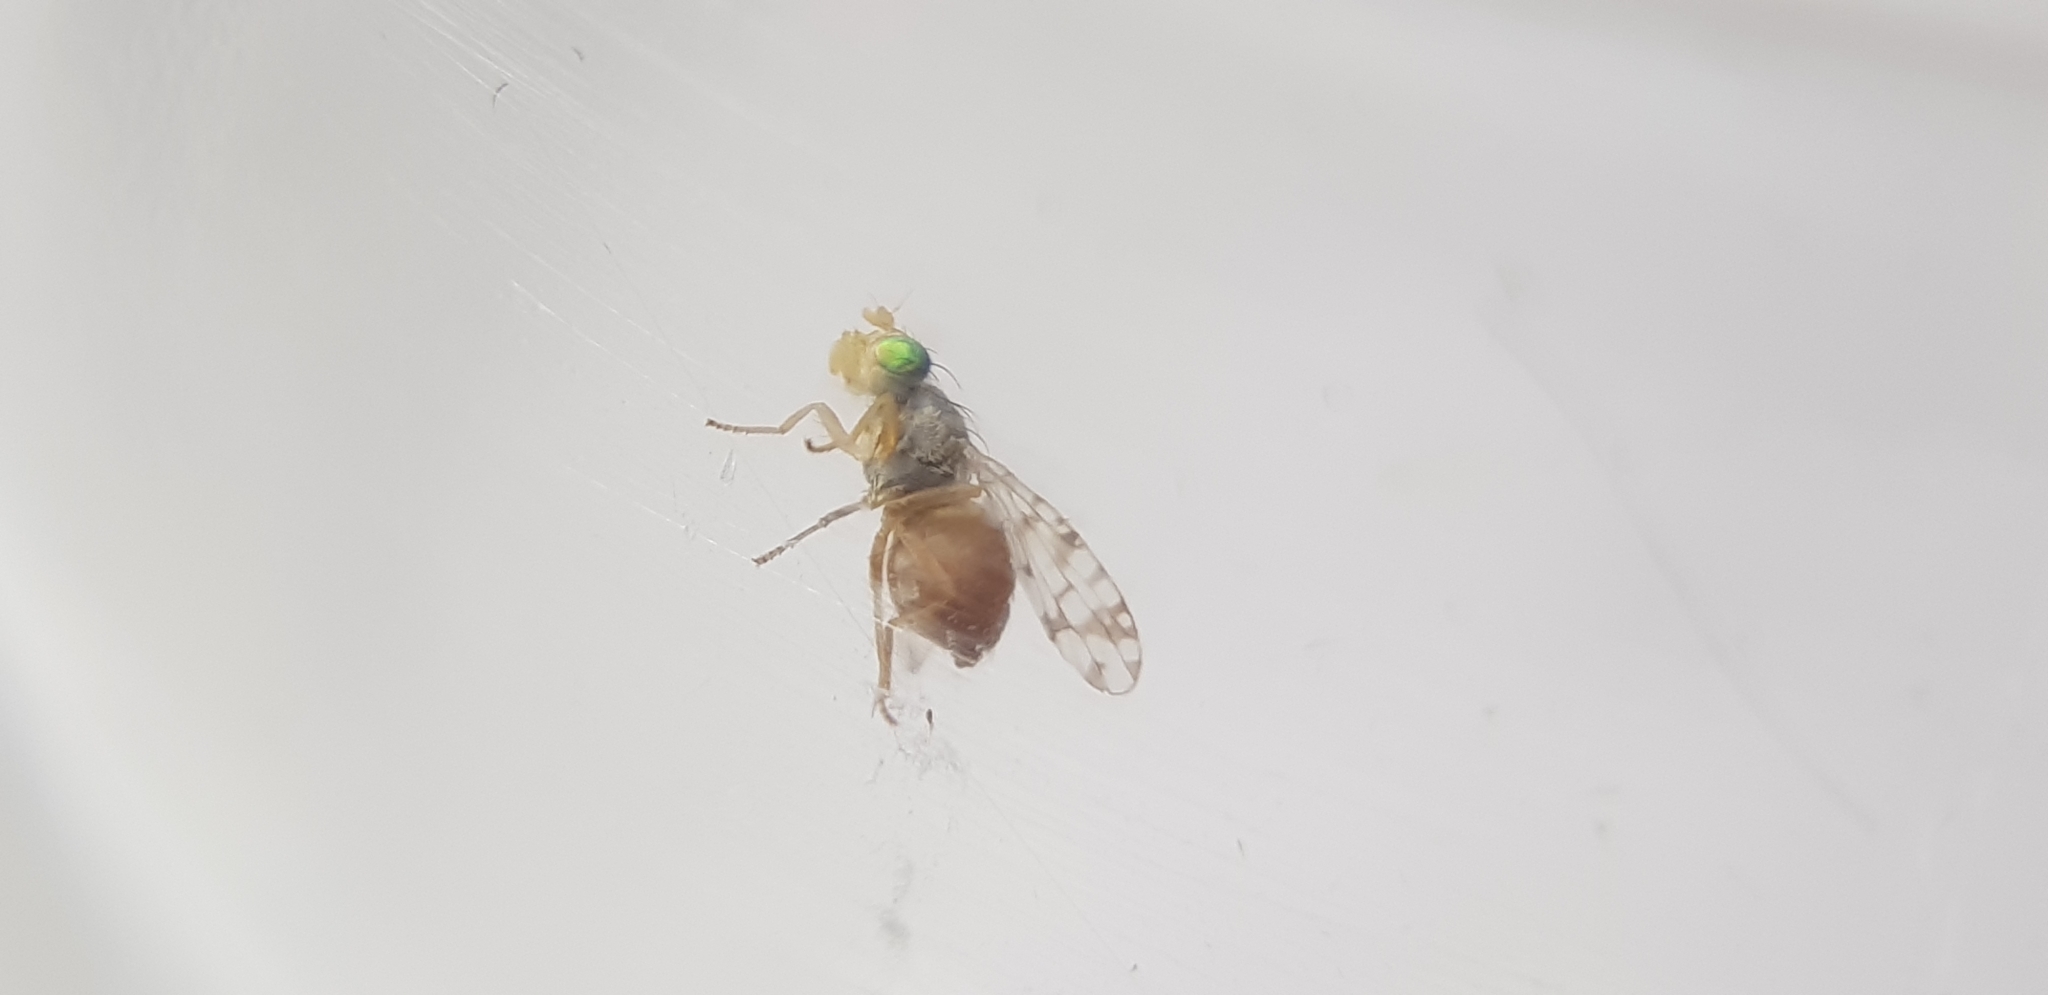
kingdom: Animalia
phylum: Arthropoda
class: Insecta
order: Diptera
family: Tephritidae
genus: Austrotephritis
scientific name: Austrotephritis
